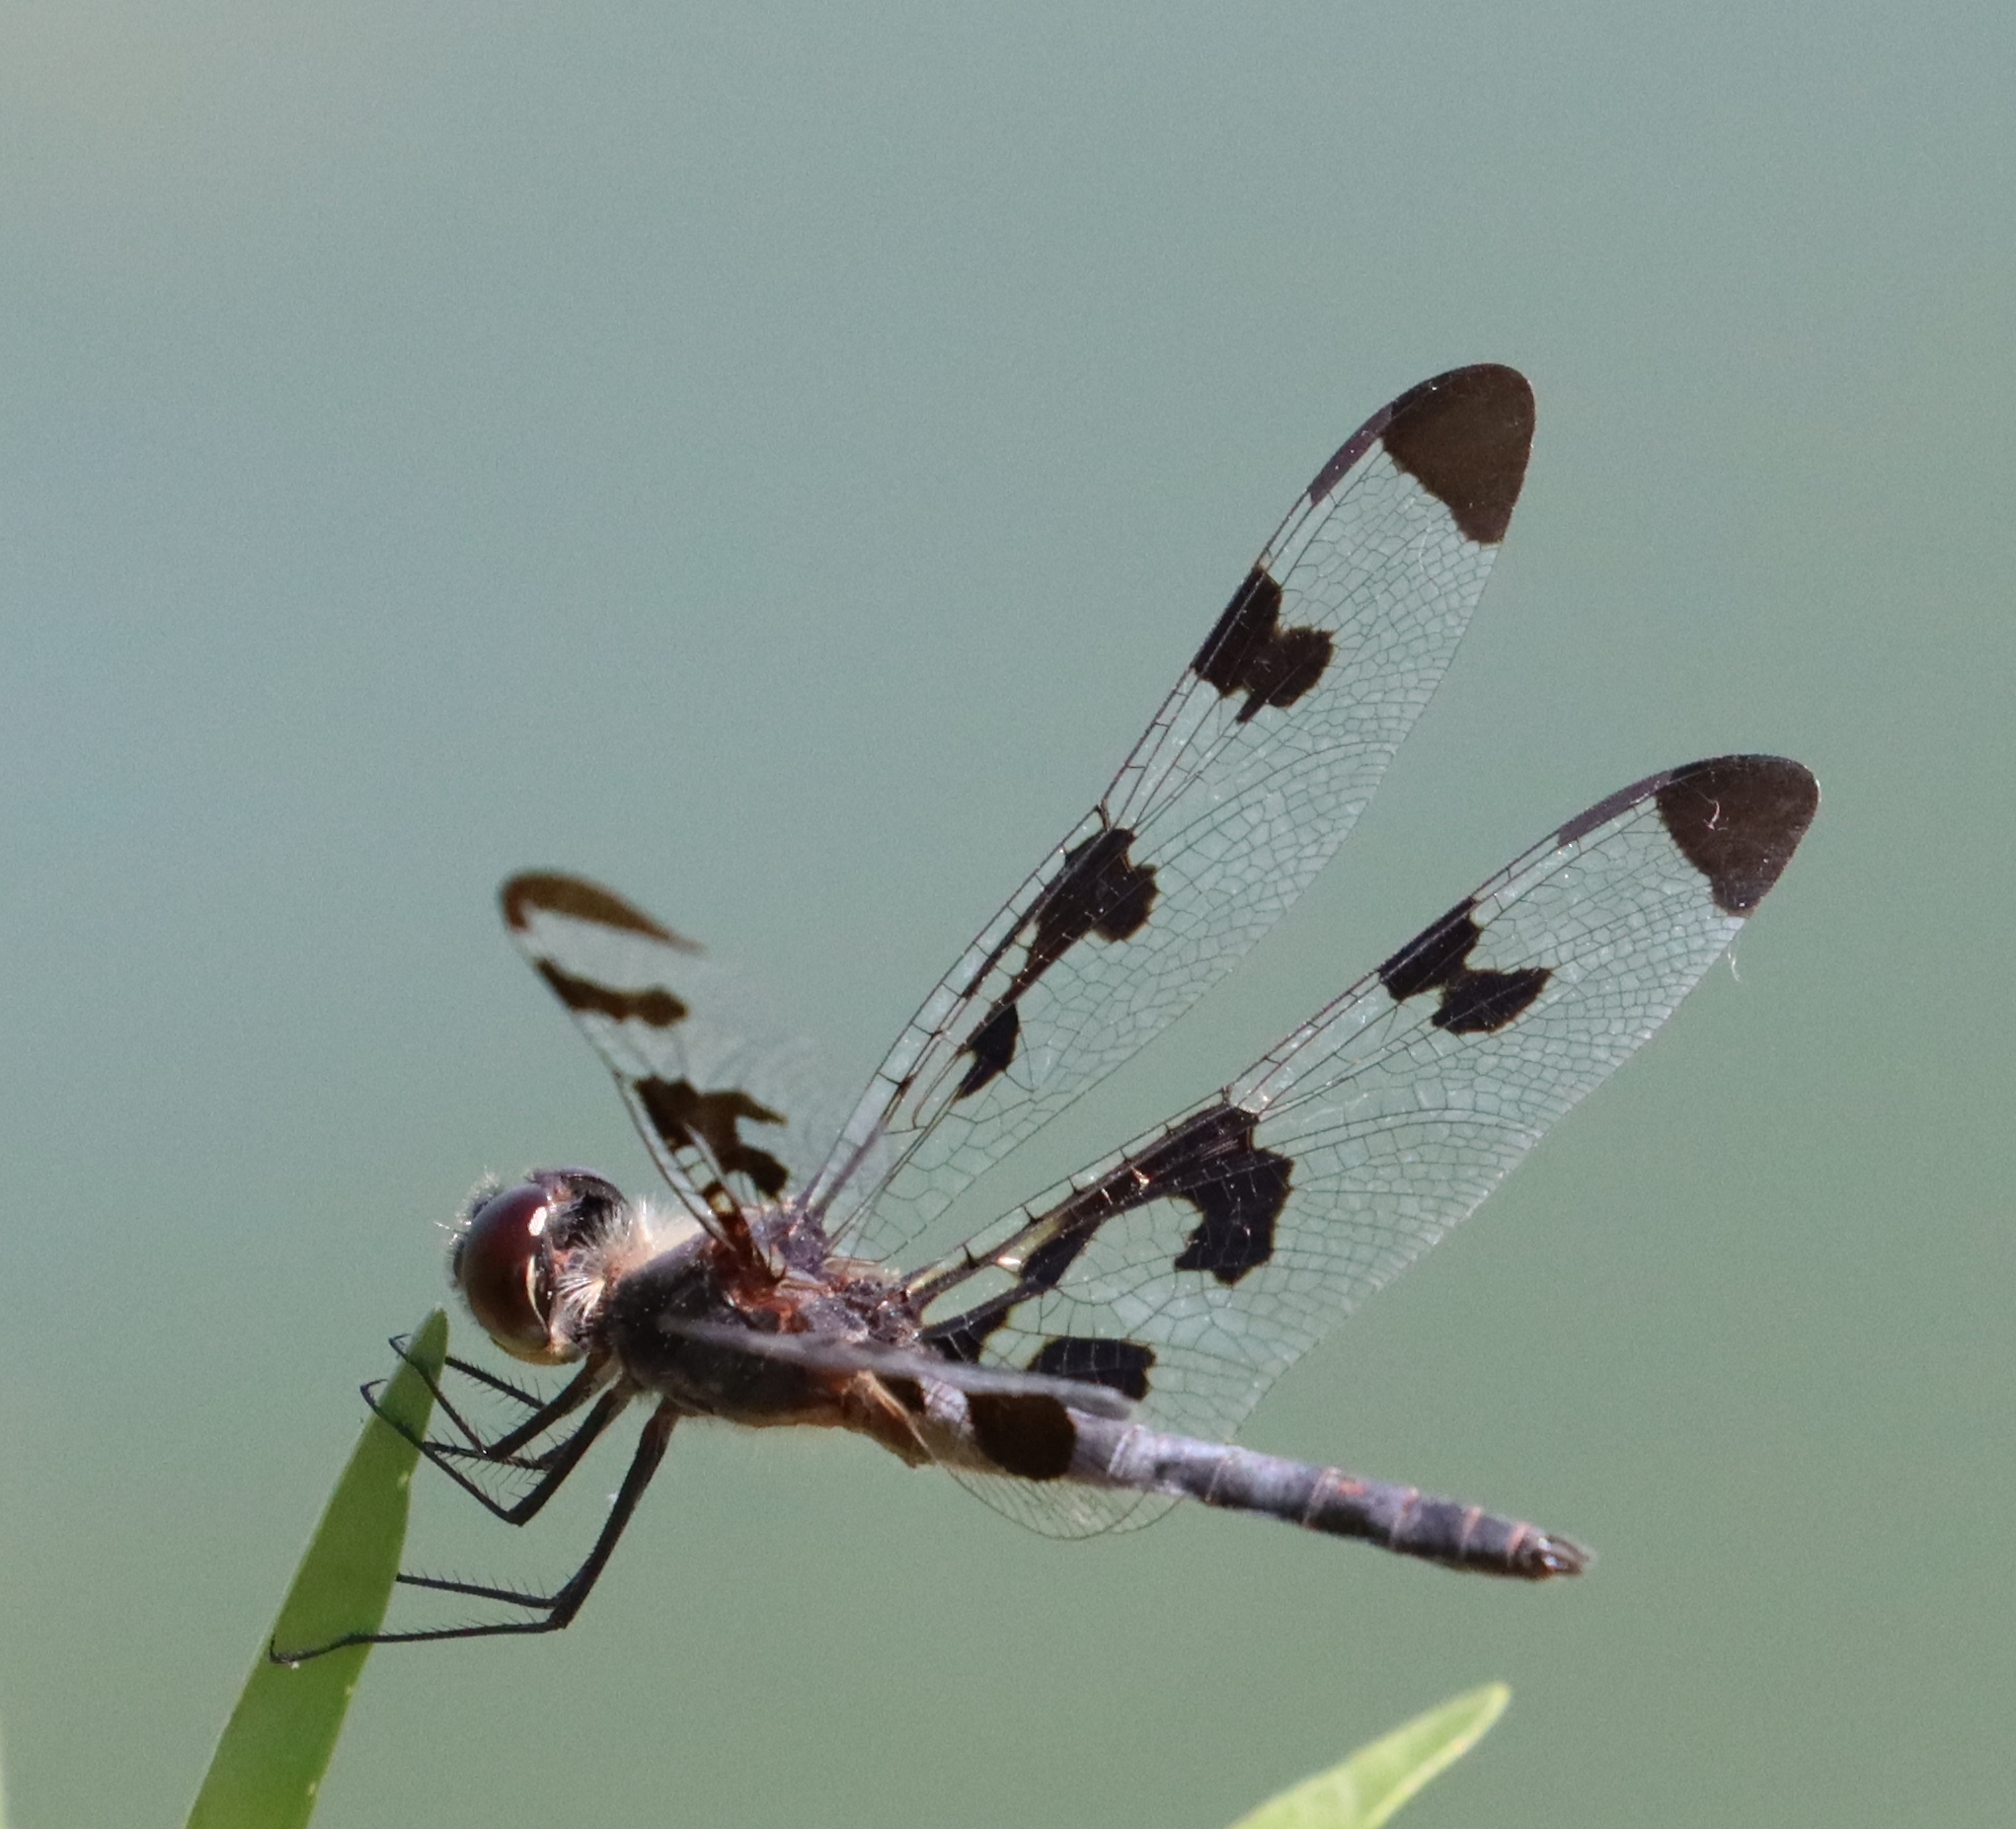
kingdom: Animalia
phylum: Arthropoda
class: Insecta
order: Odonata
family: Libellulidae
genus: Celithemis
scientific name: Celithemis fasciata
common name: Banded pennant
